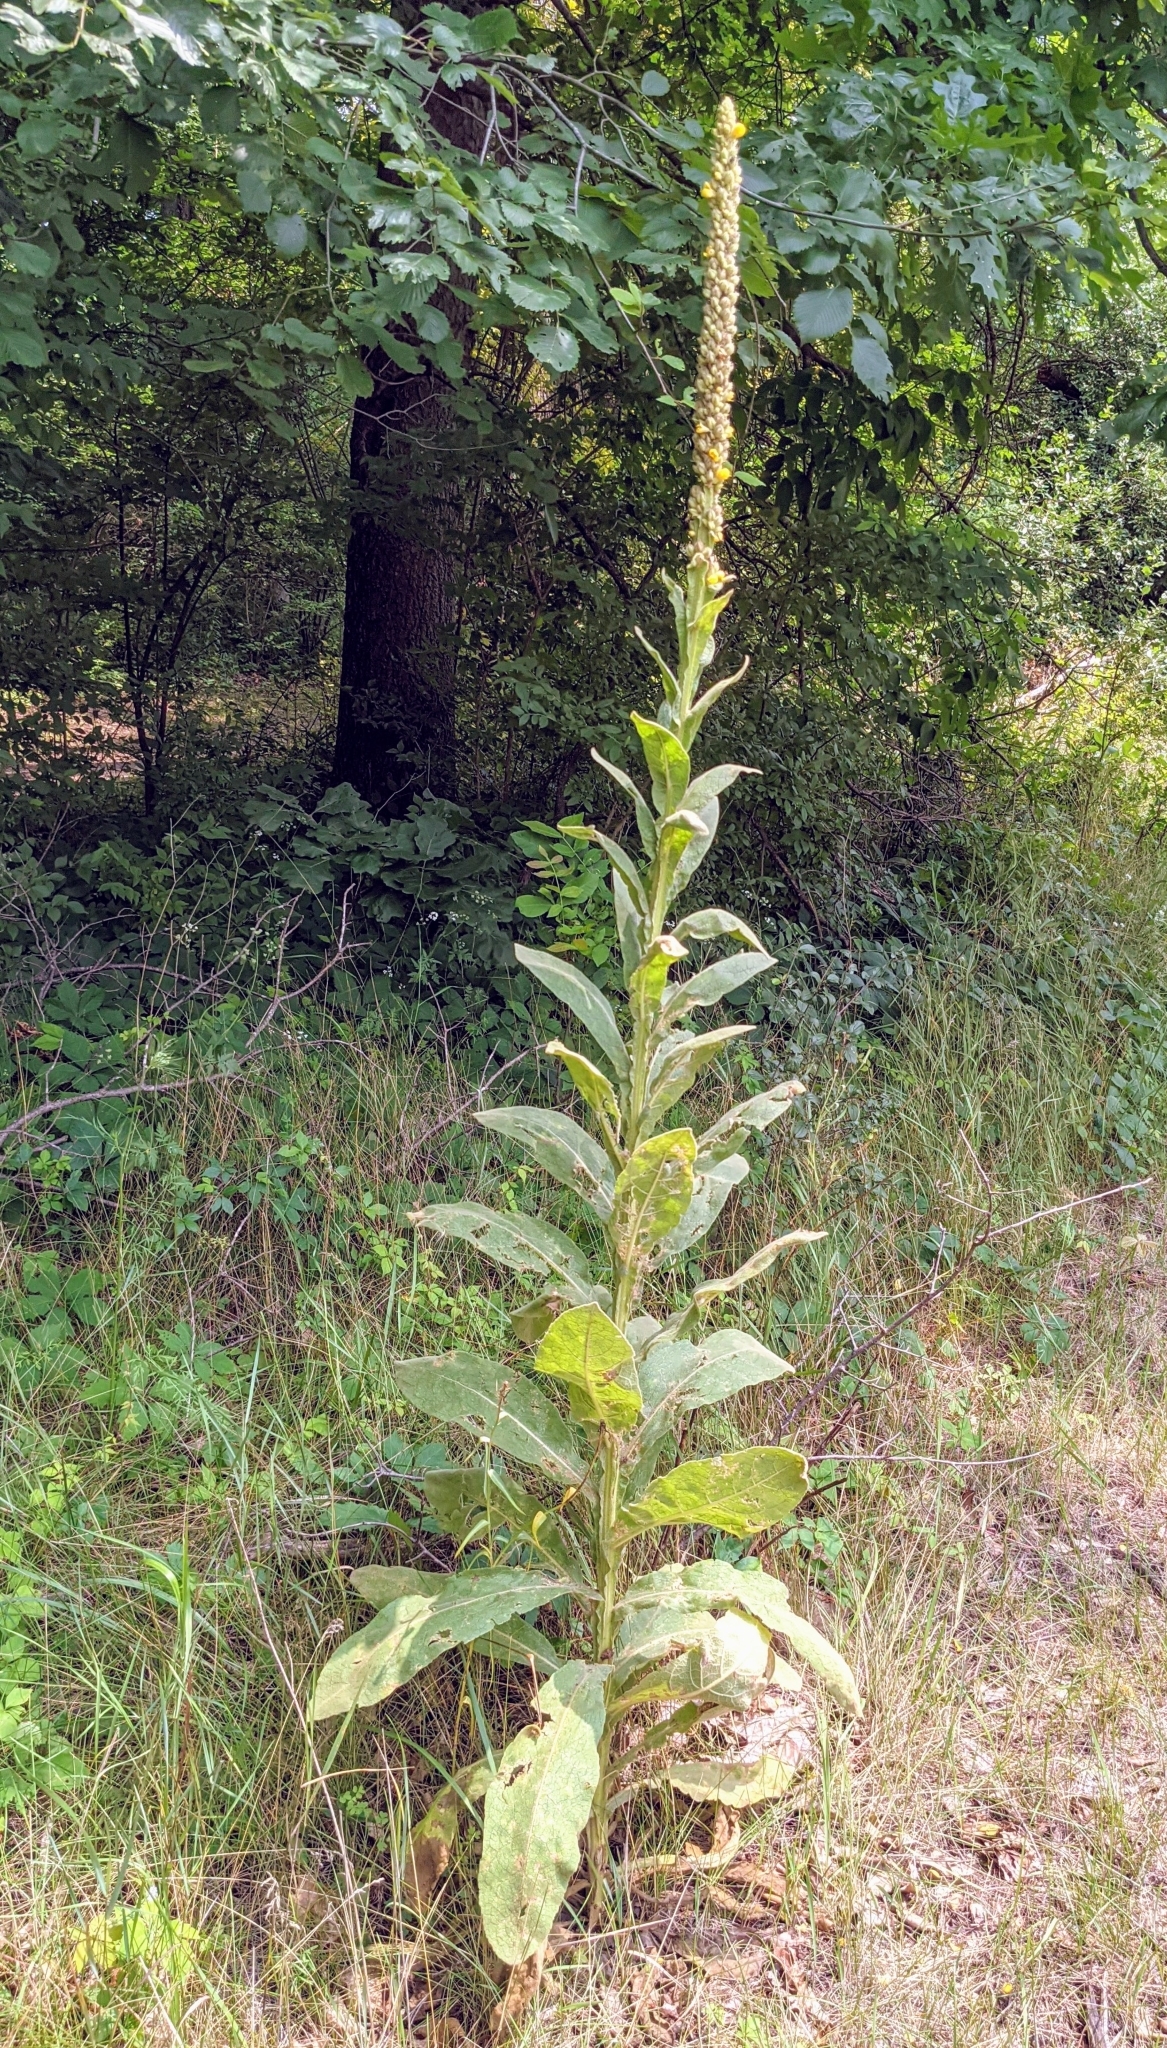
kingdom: Plantae
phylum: Tracheophyta
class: Magnoliopsida
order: Lamiales
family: Scrophulariaceae
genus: Verbascum
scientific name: Verbascum thapsus
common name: Common mullein
